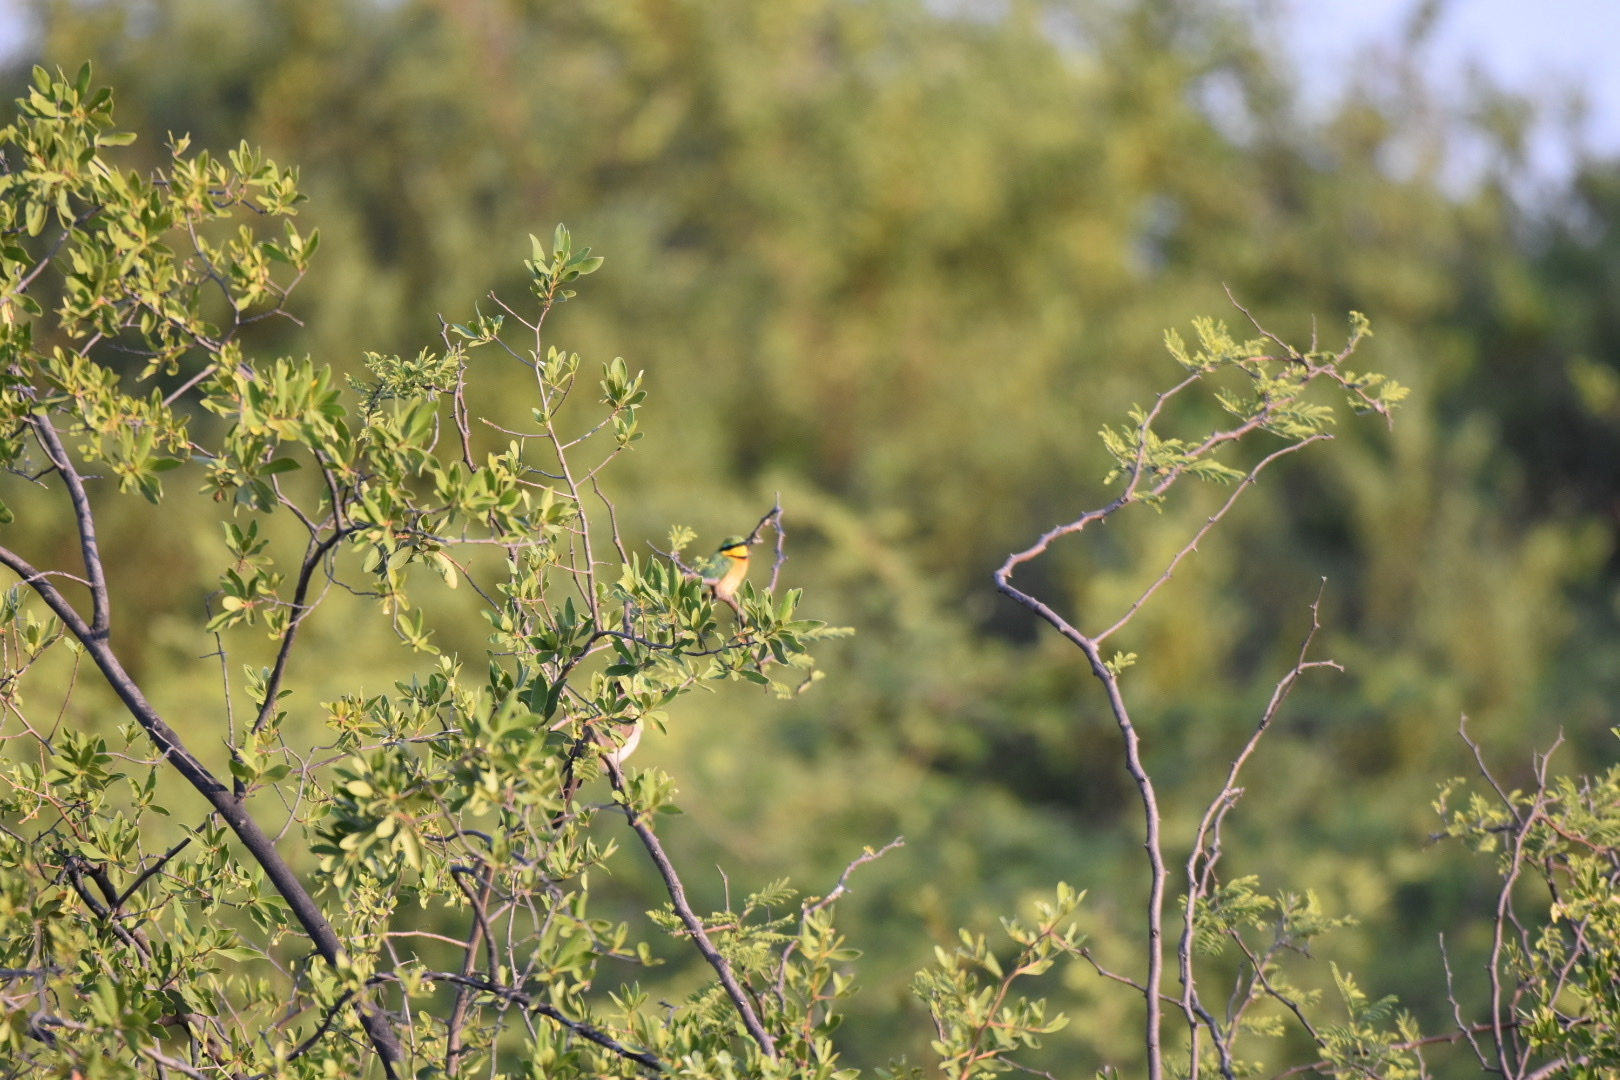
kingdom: Animalia
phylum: Chordata
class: Aves
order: Coraciiformes
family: Meropidae
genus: Merops
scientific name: Merops pusillus
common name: Little bee-eater
